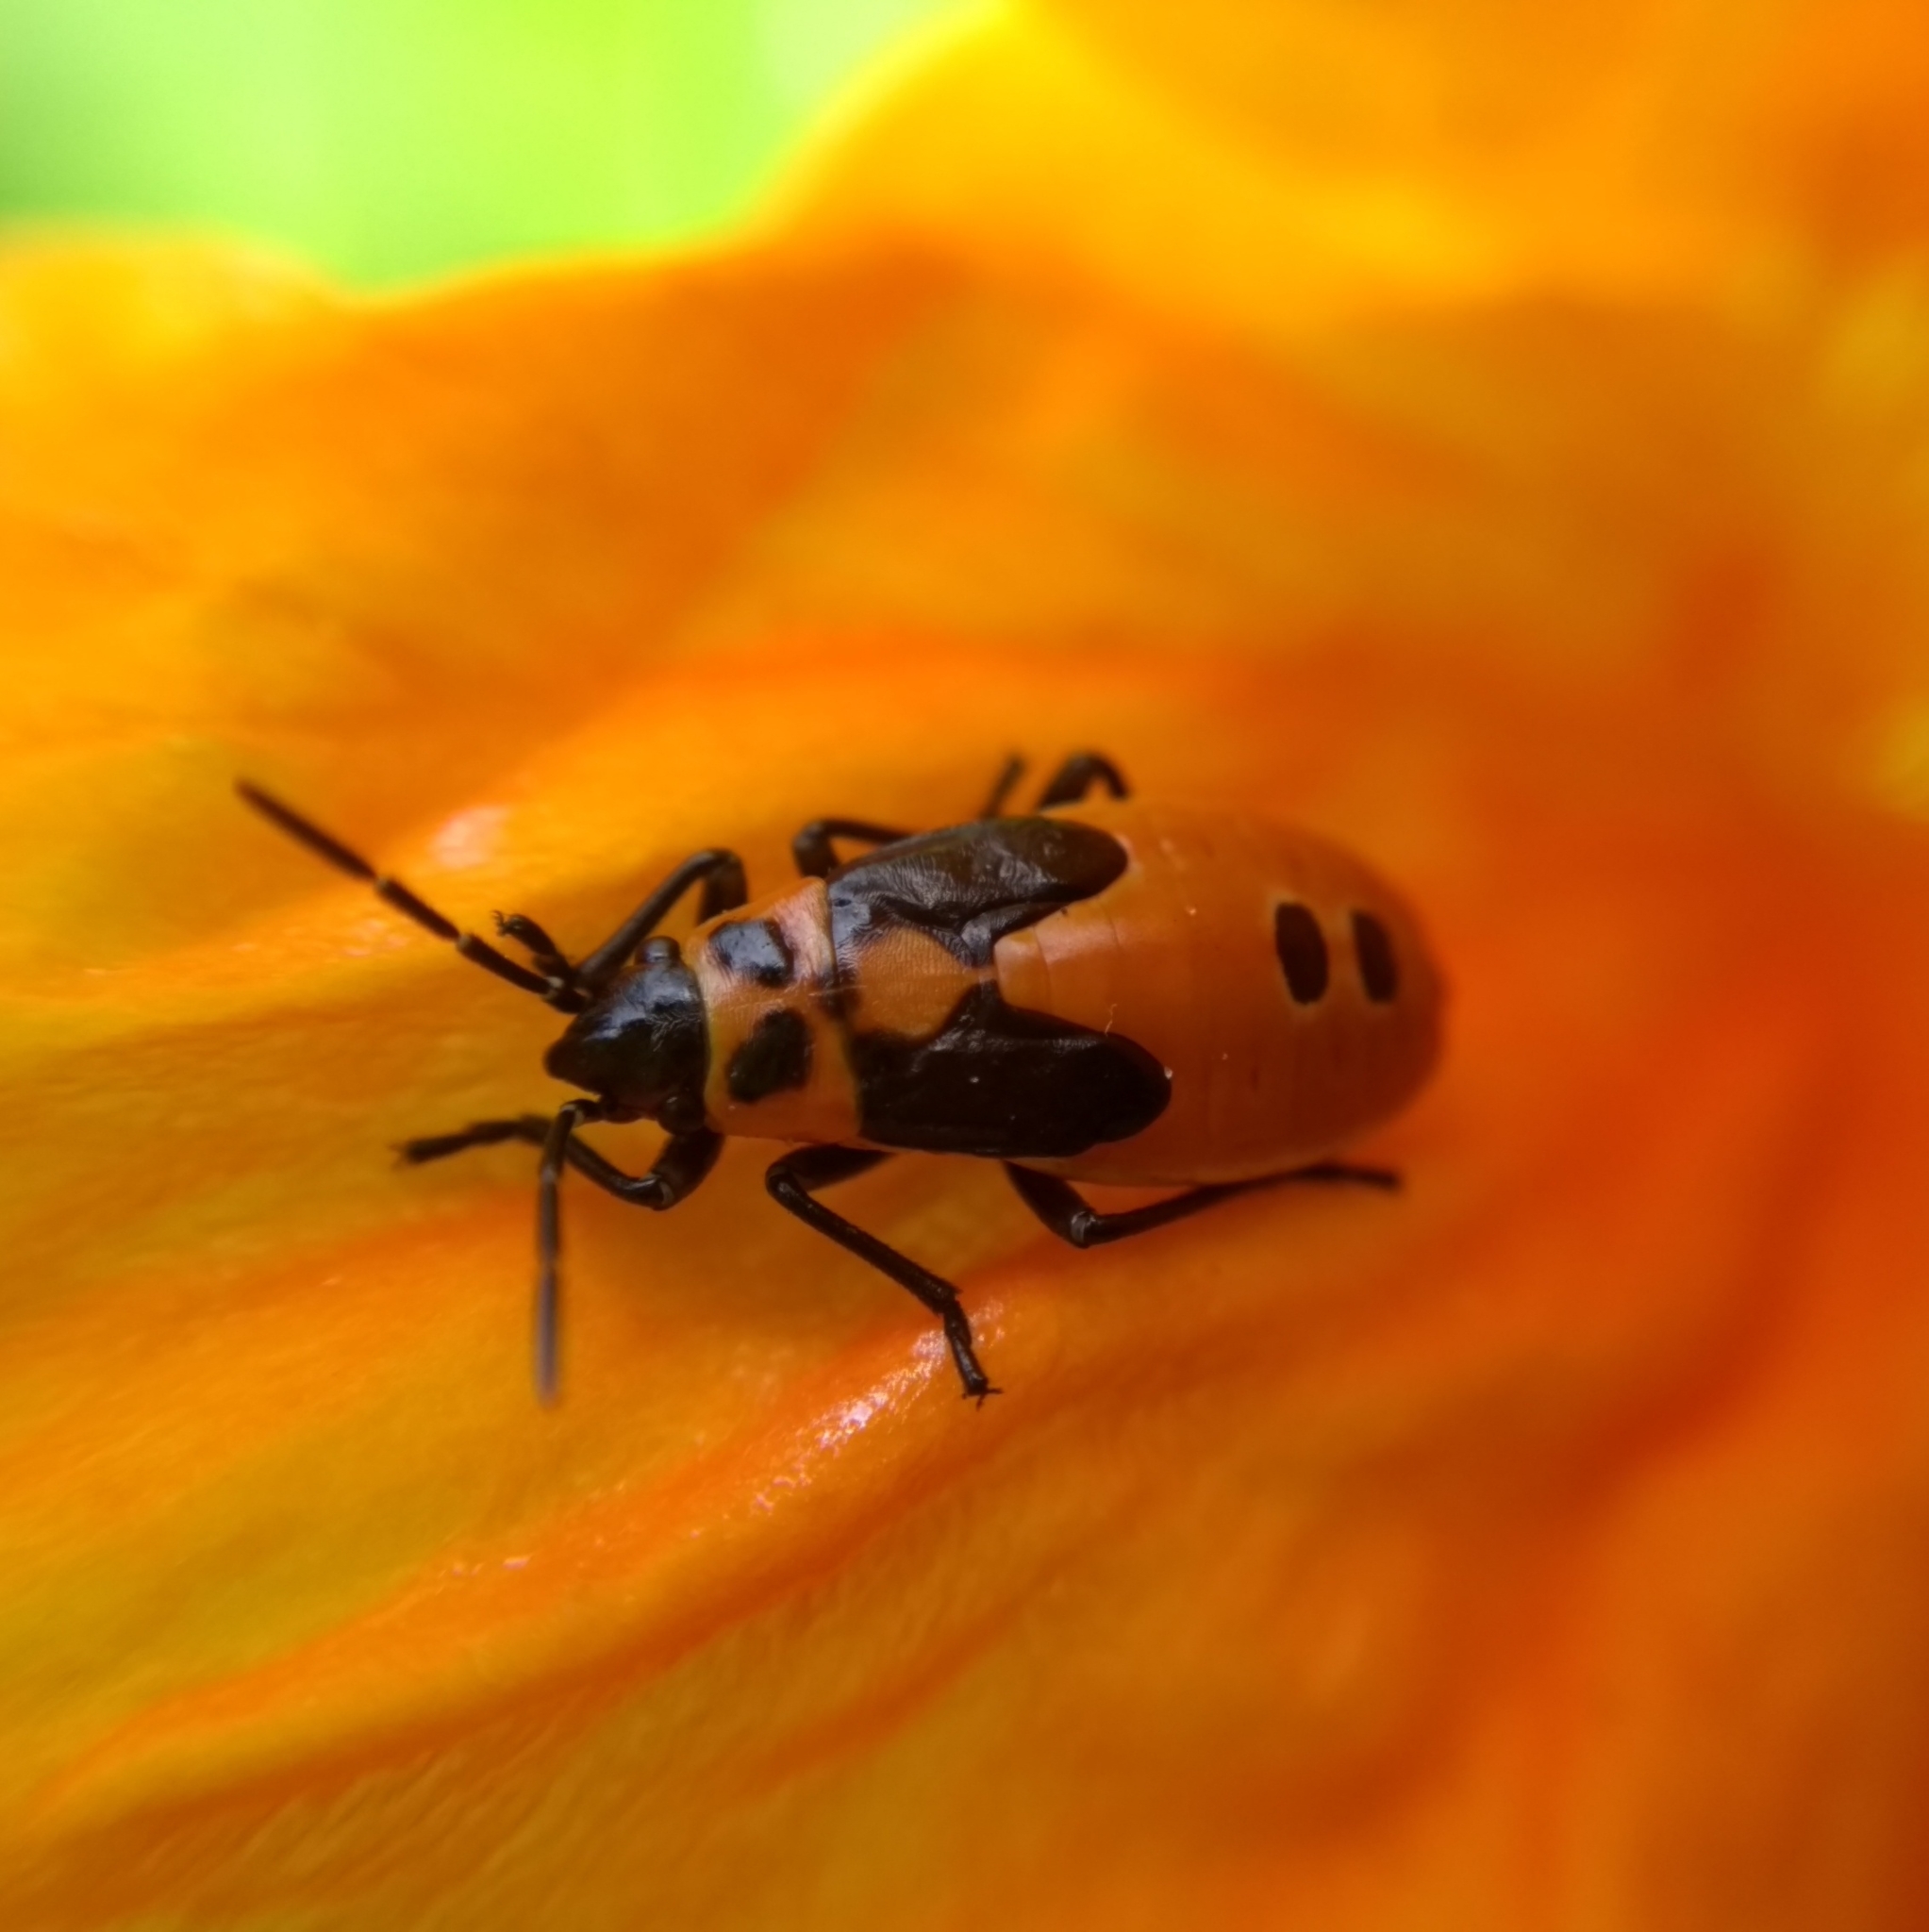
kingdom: Animalia
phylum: Arthropoda
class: Insecta
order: Hemiptera
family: Lygaeidae
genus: Lygaeus
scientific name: Lygaeus turcicus
